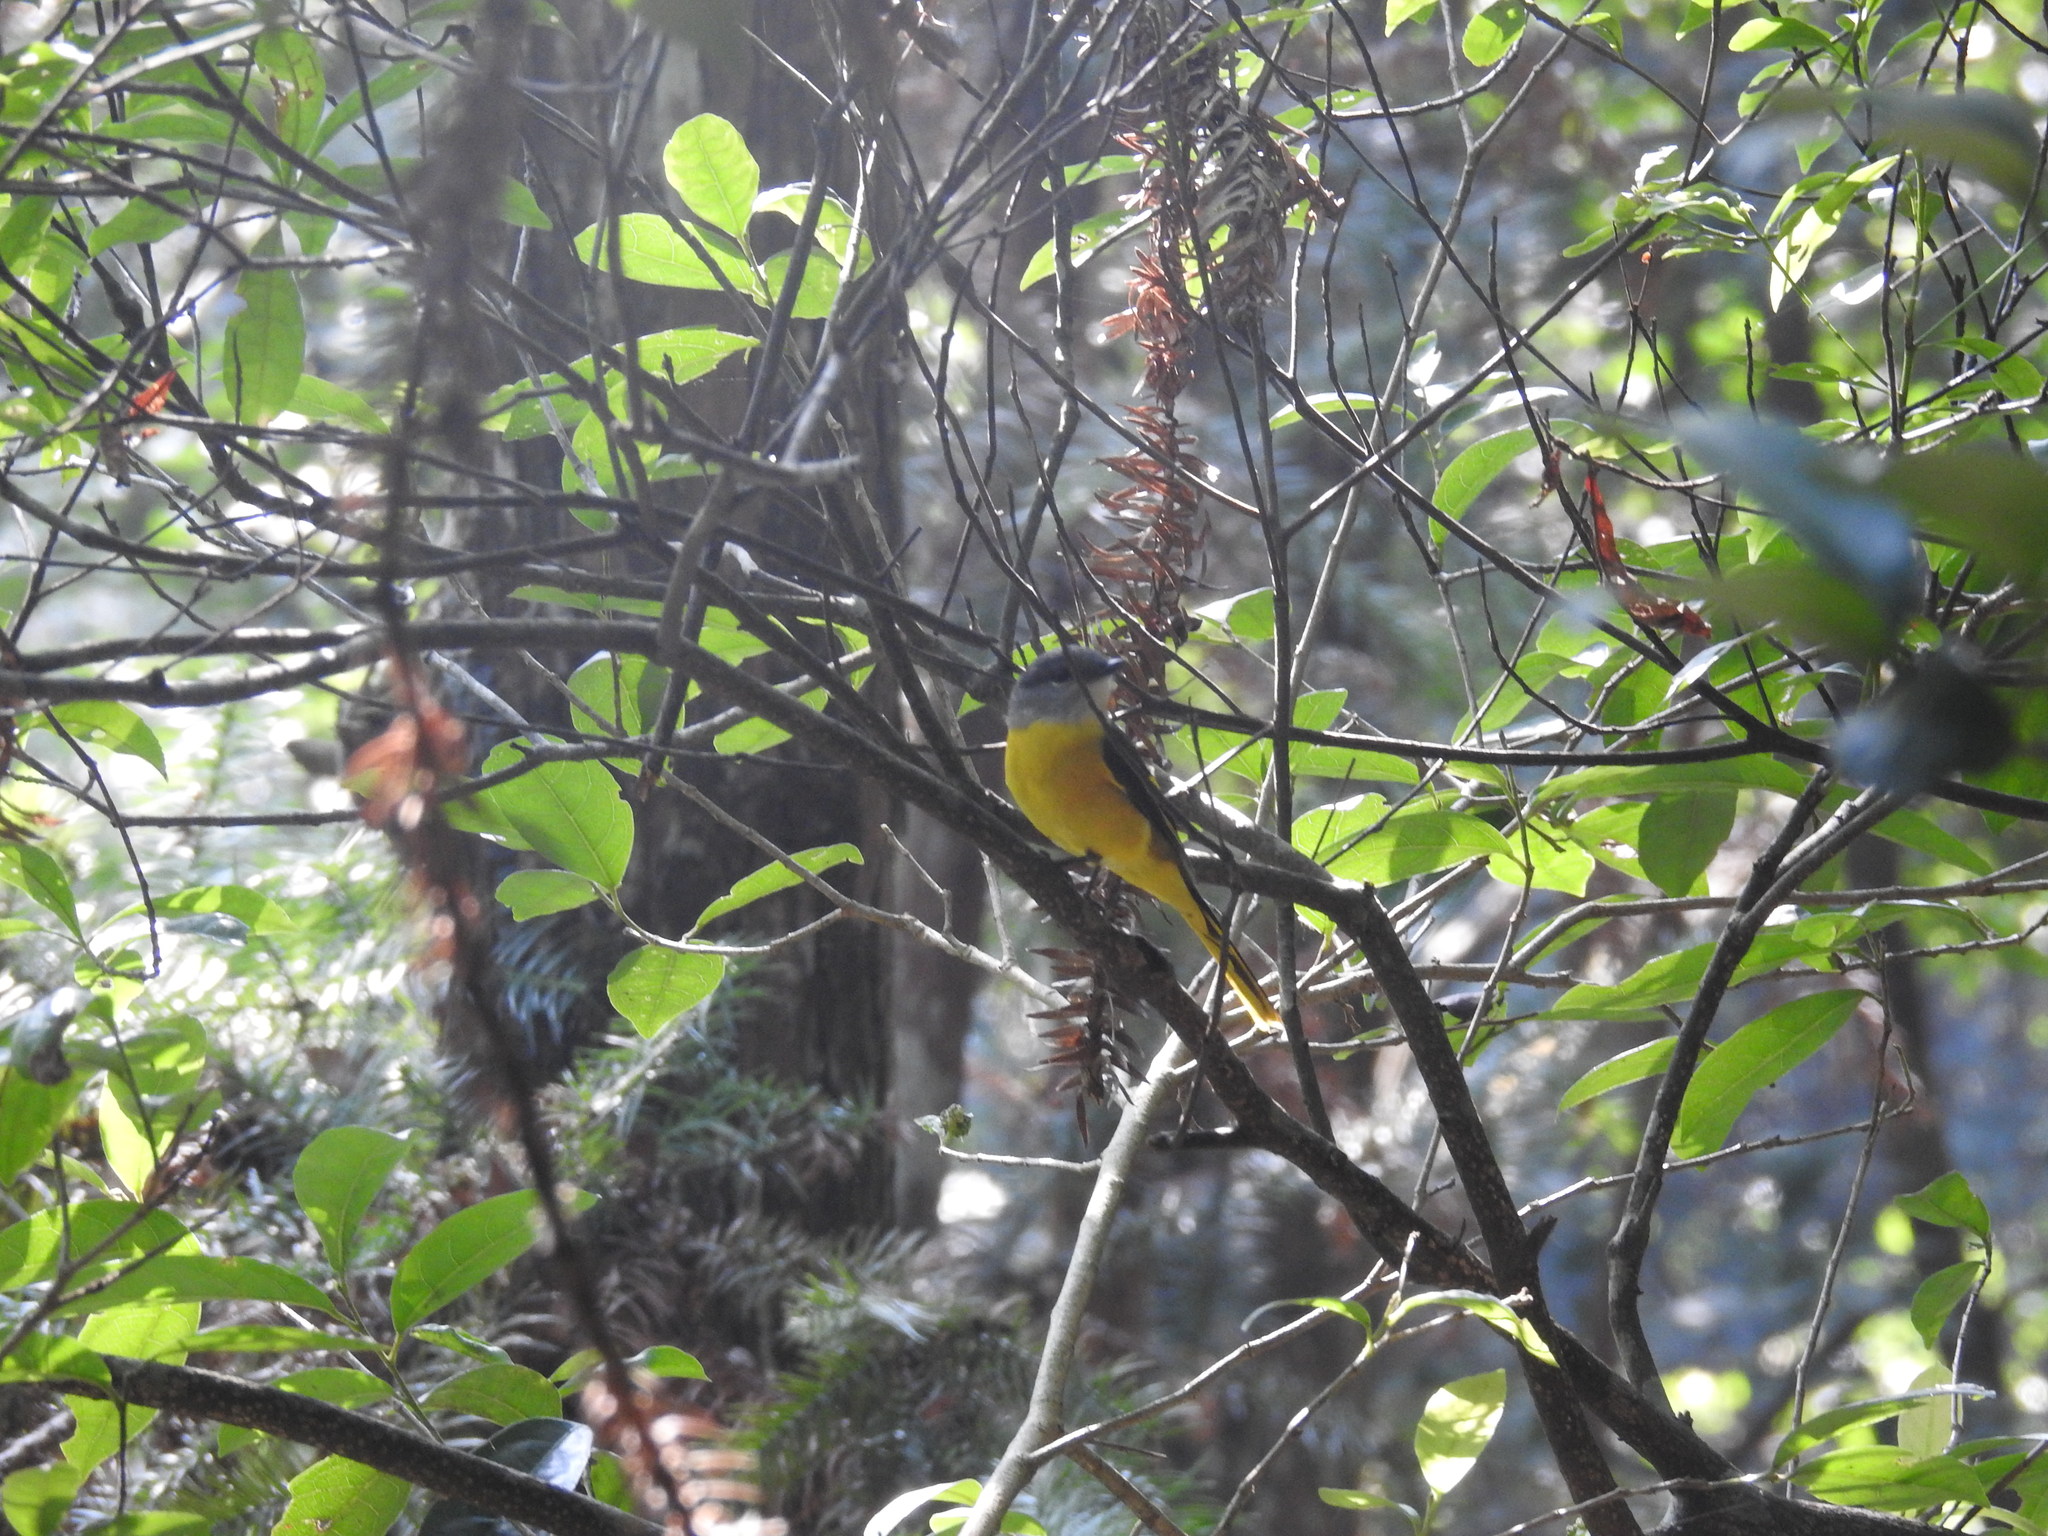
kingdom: Animalia
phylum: Chordata
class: Aves
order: Passeriformes
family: Campephagidae
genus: Pericrocotus
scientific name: Pericrocotus solaris
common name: Grey-chinned minivet
